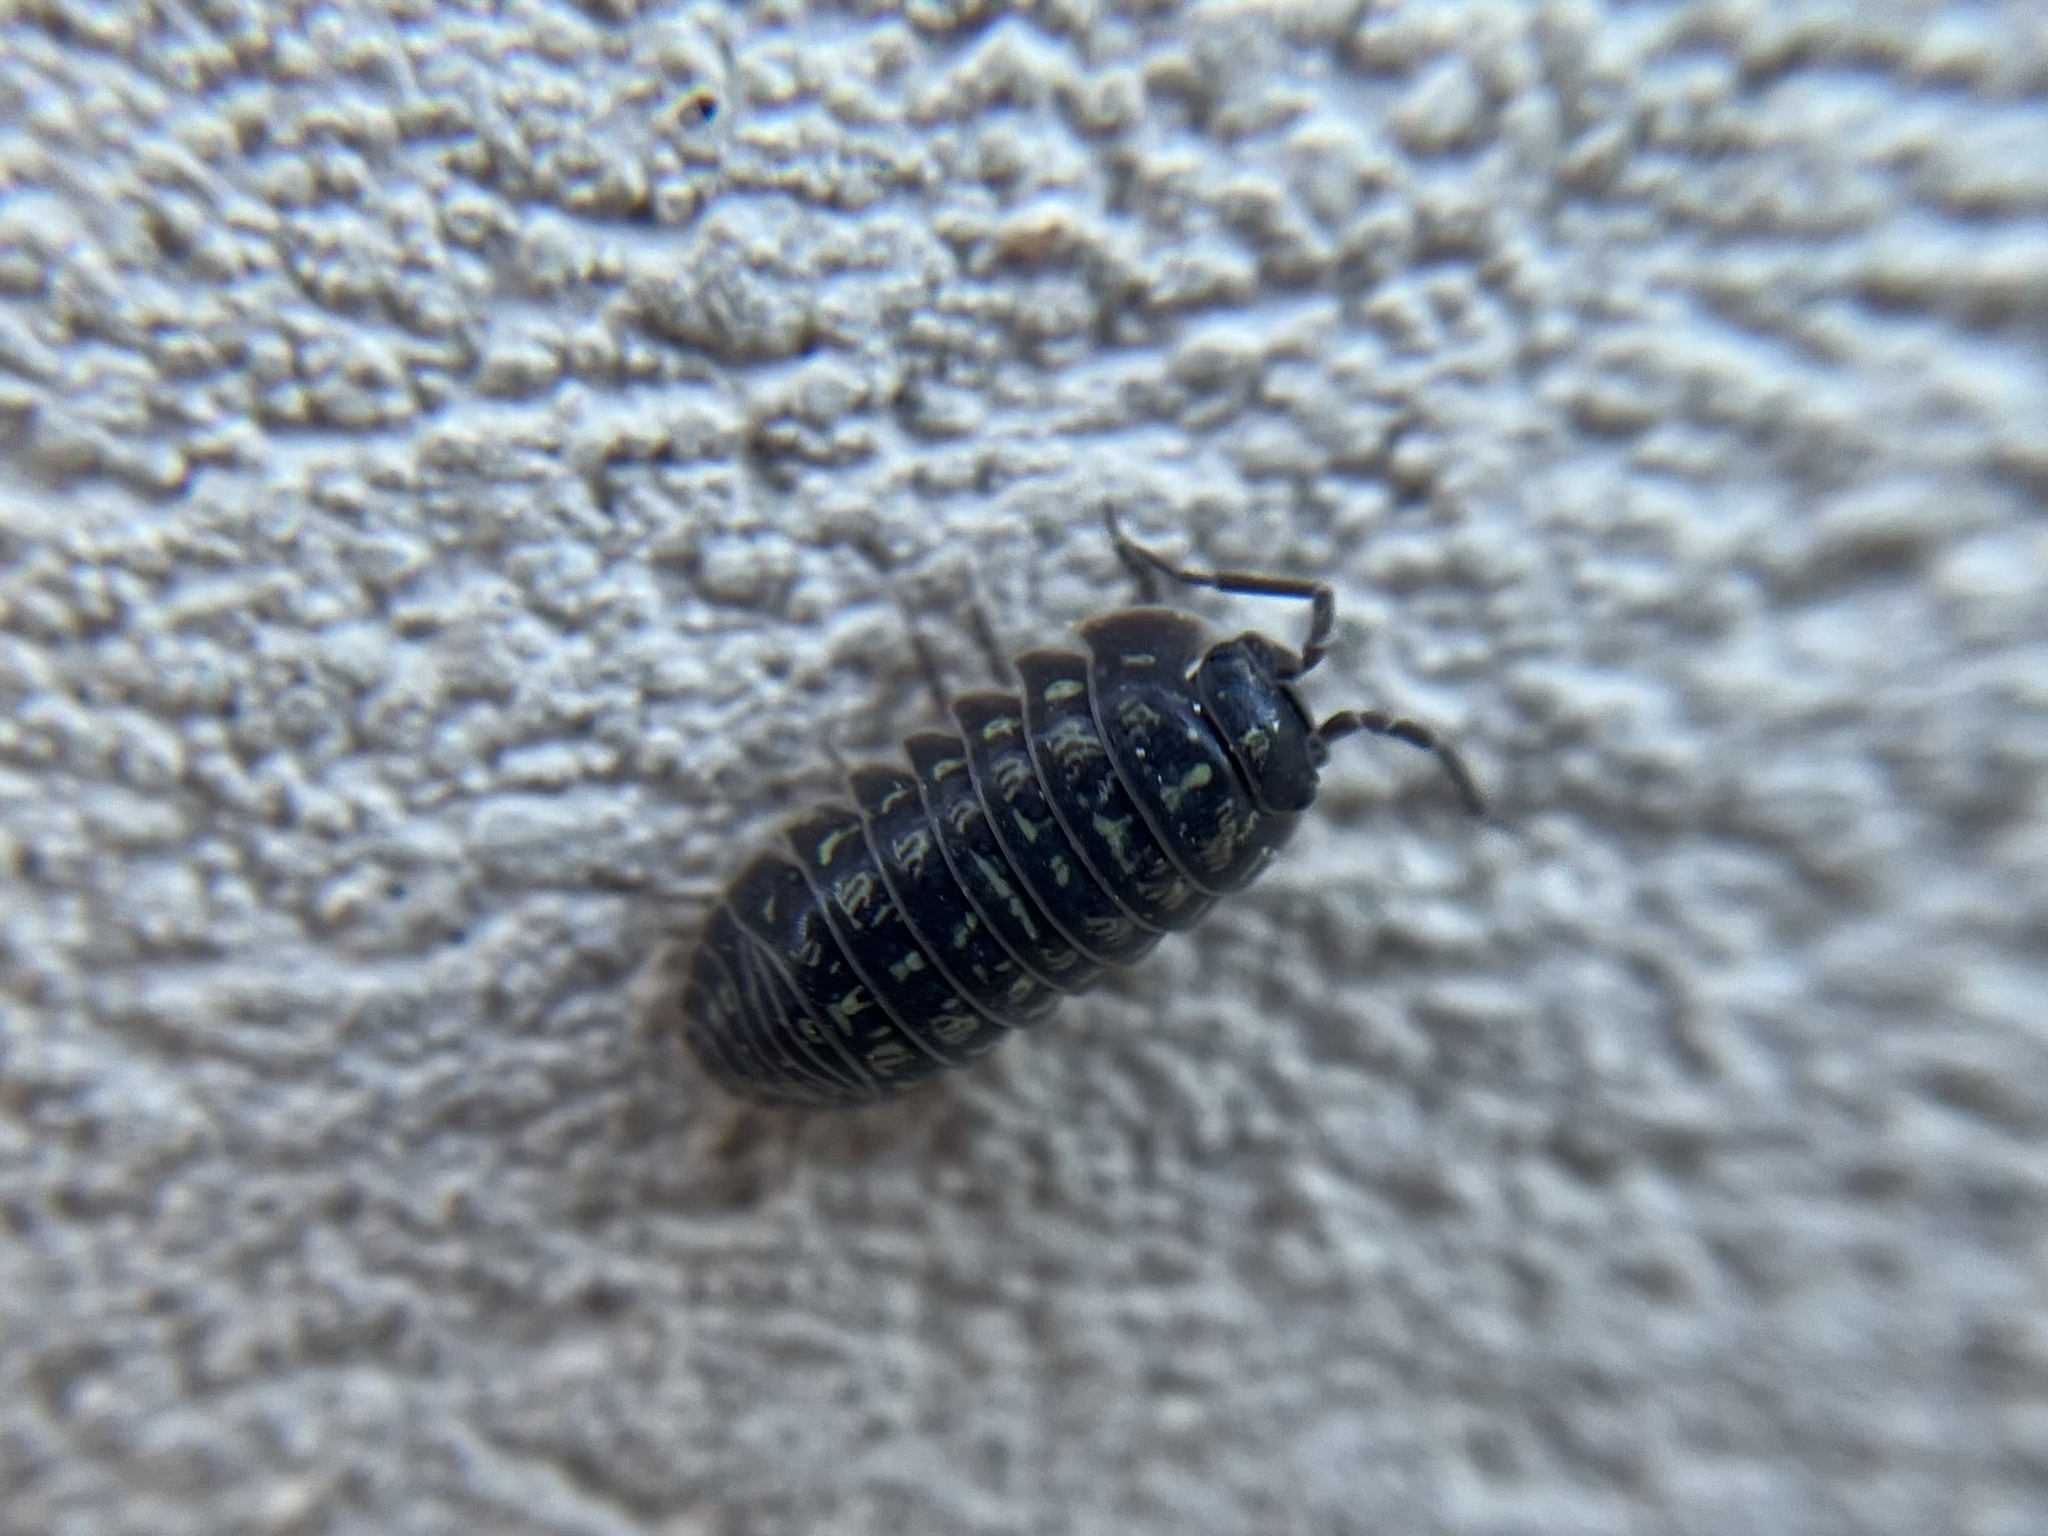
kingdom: Animalia
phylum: Arthropoda
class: Malacostraca
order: Isopoda
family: Armadillidiidae
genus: Armadillidium
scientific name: Armadillidium versicolor
